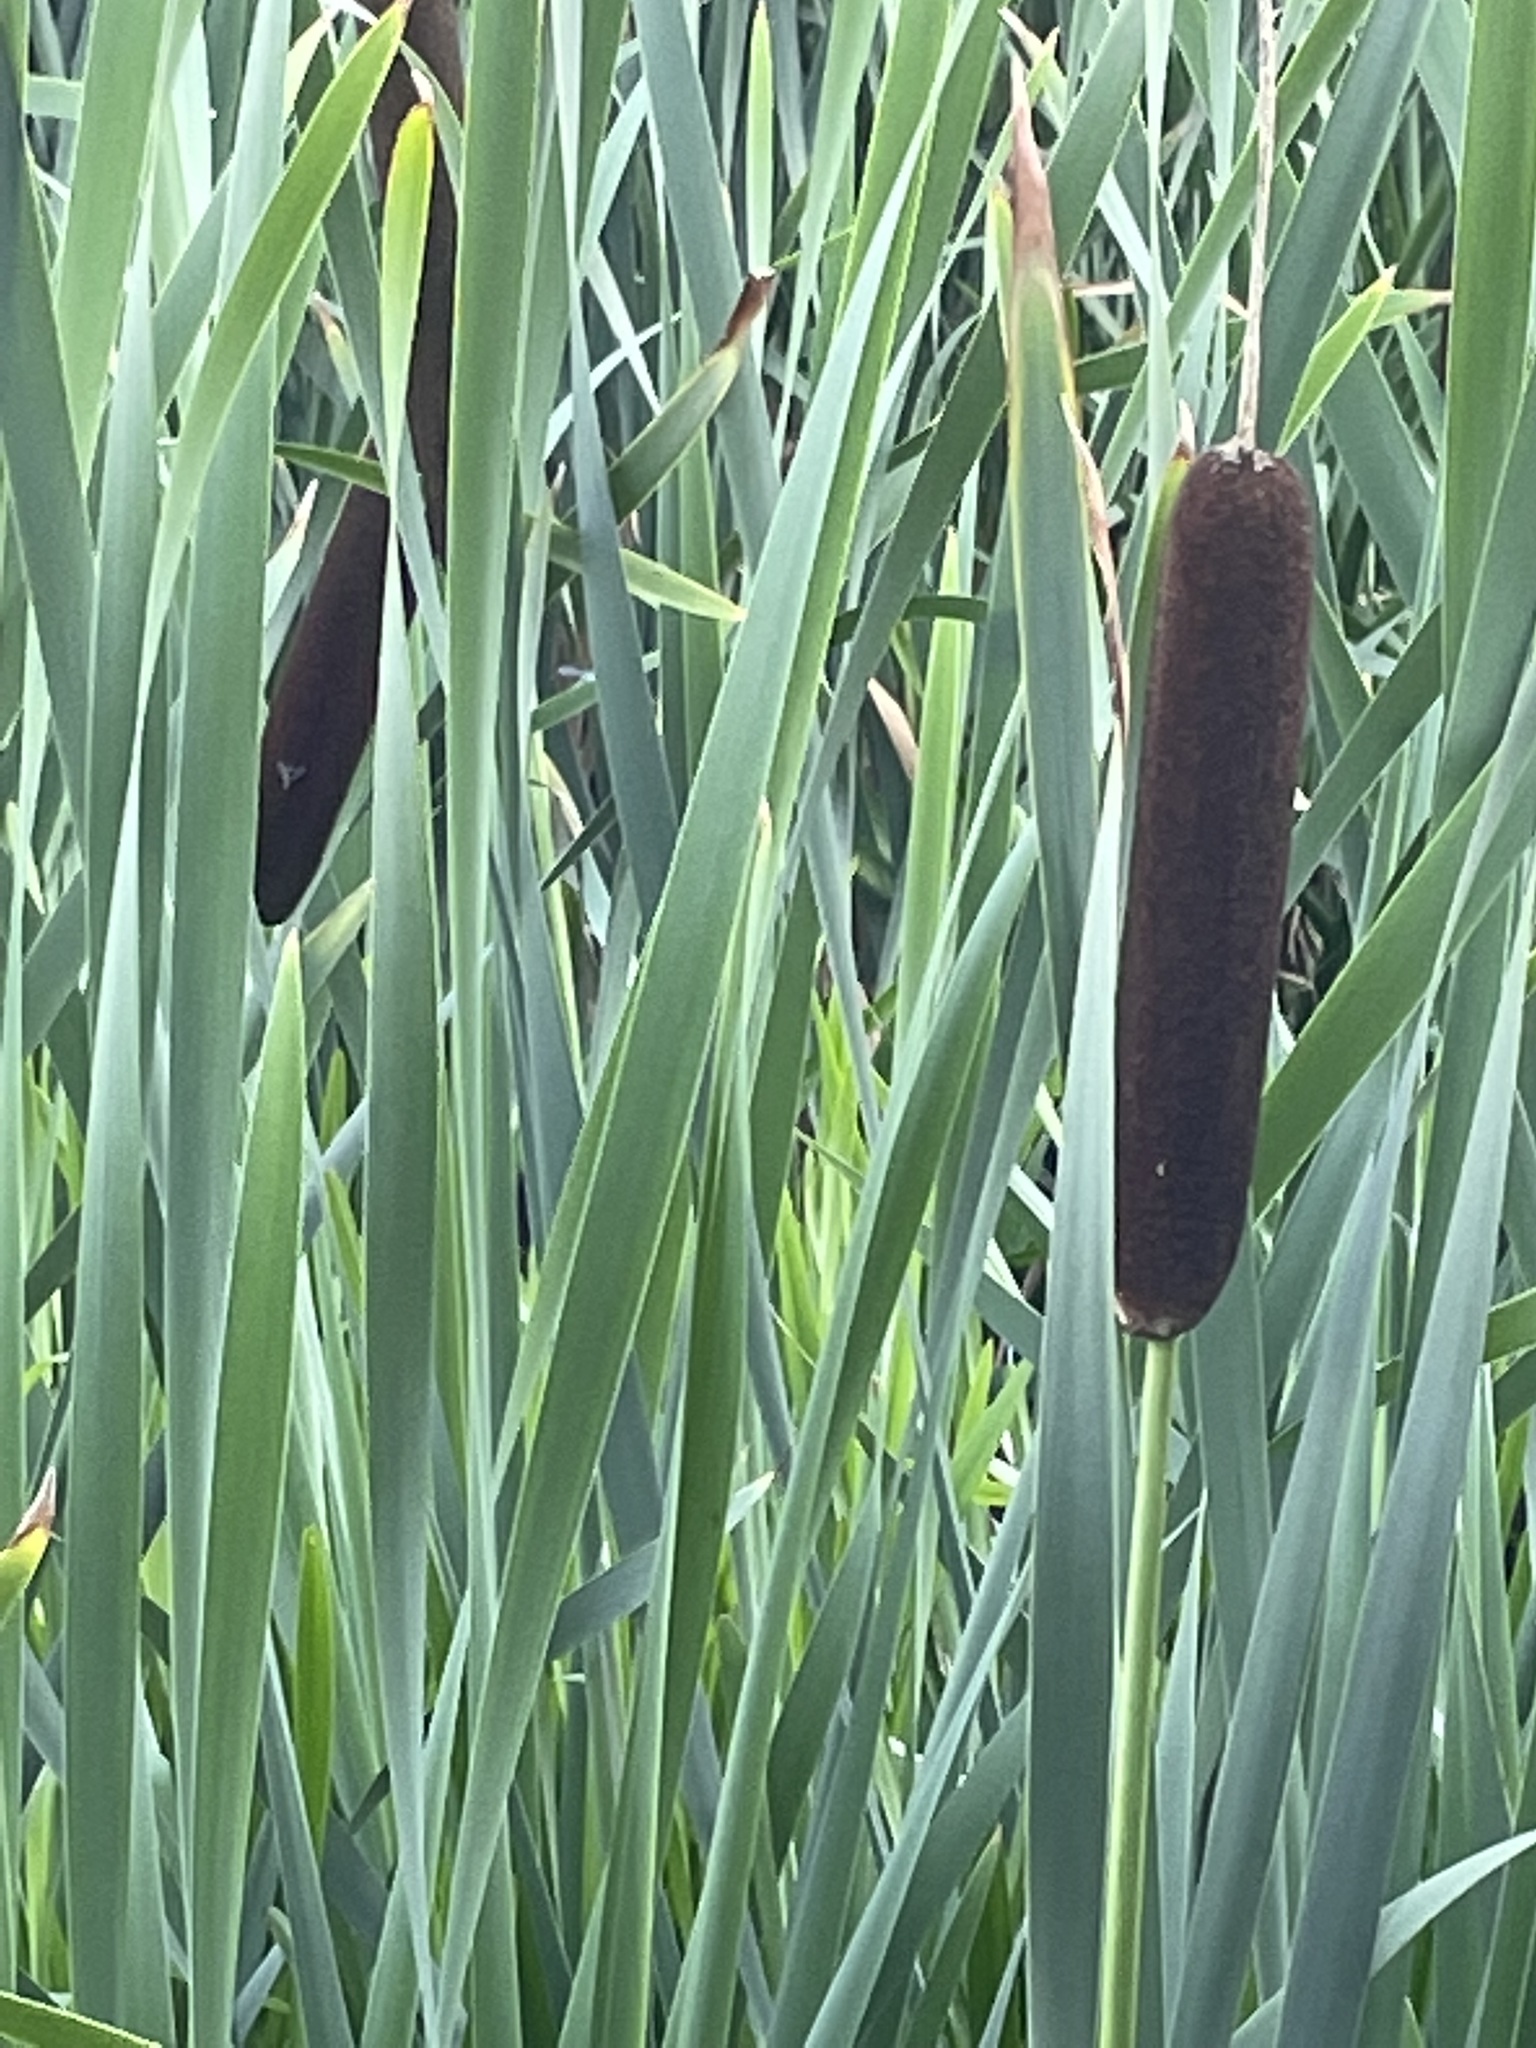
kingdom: Plantae
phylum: Tracheophyta
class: Liliopsida
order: Poales
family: Typhaceae
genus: Typha
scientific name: Typha latifolia
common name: Broadleaf cattail
